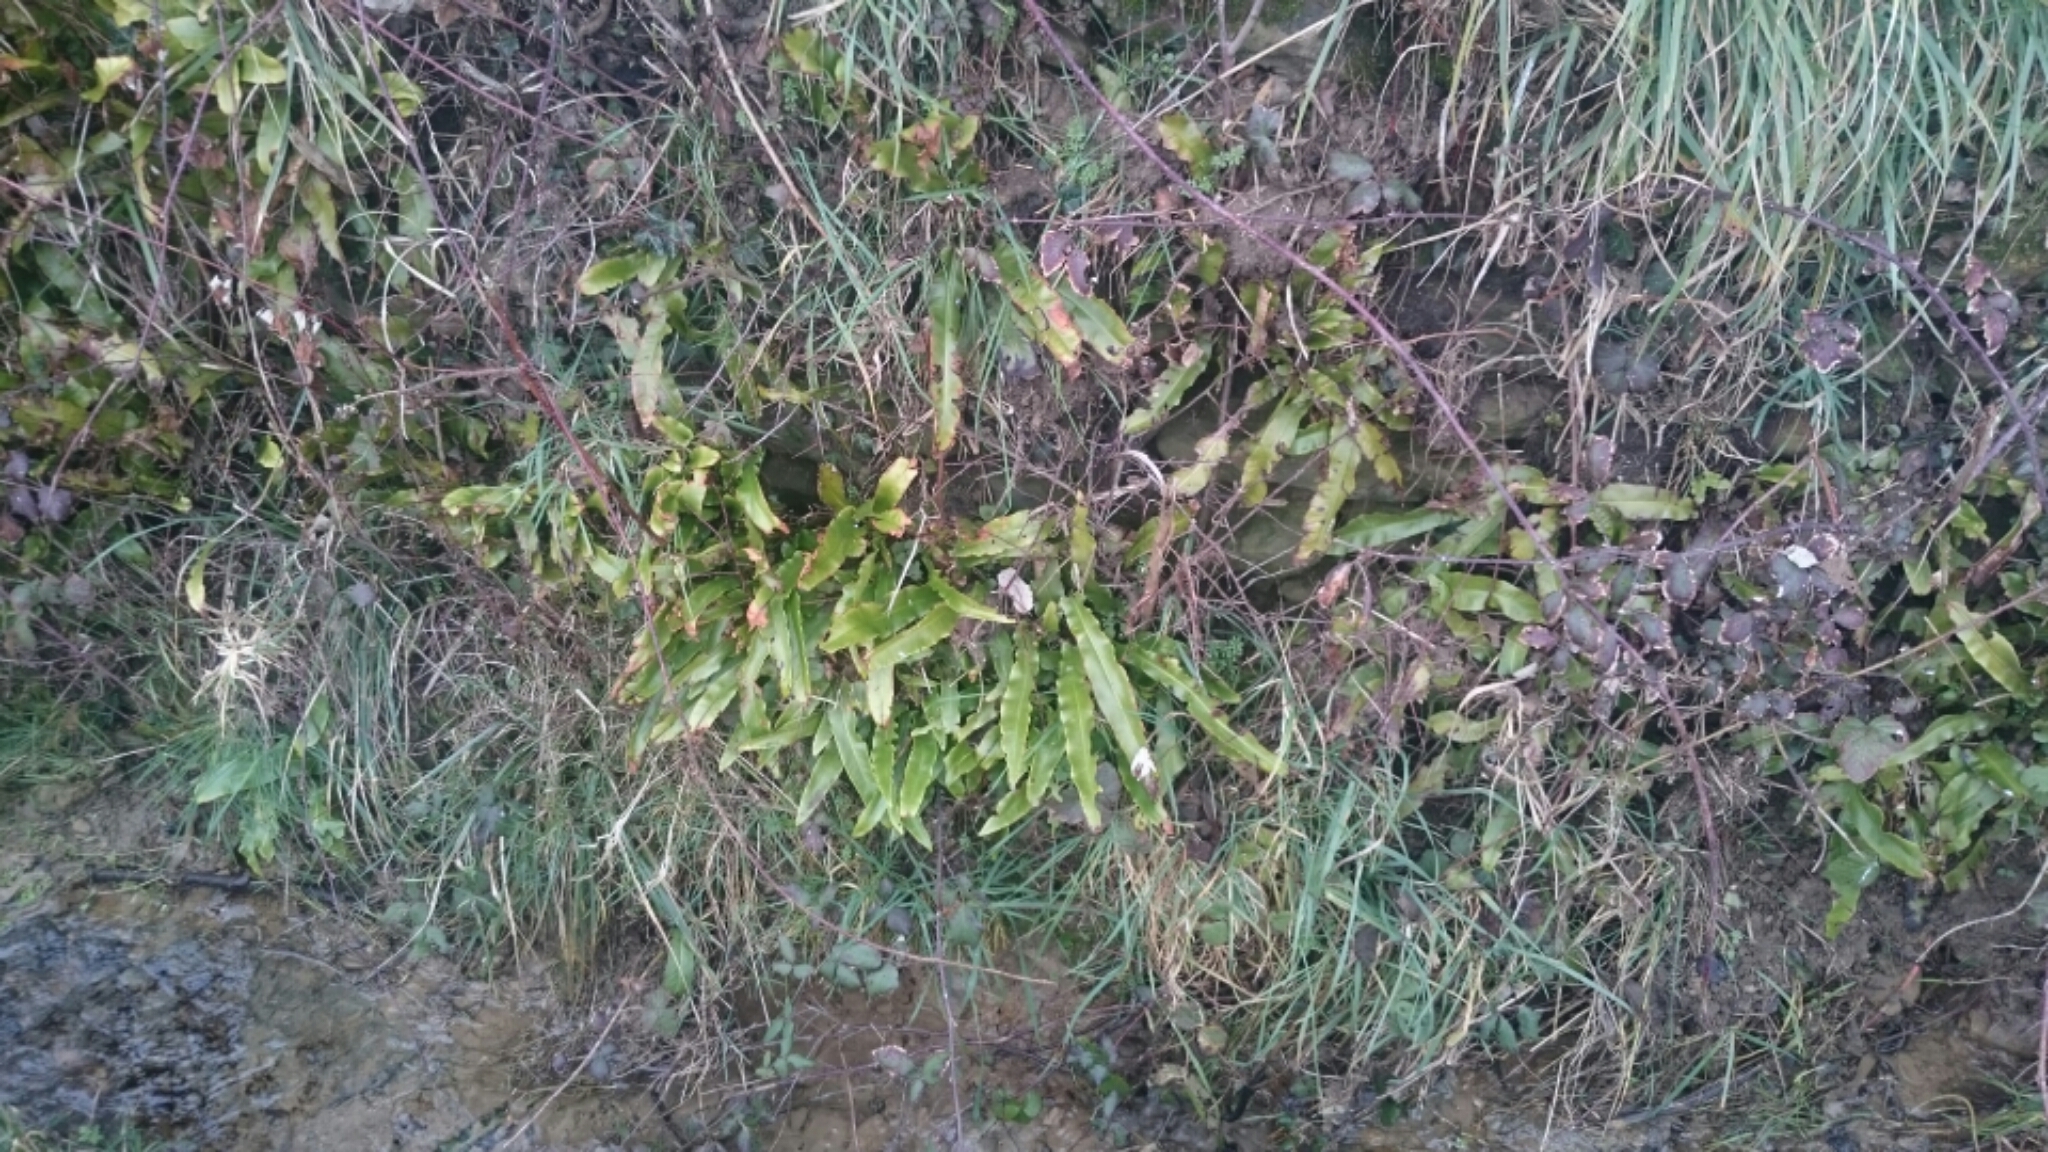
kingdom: Plantae
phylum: Tracheophyta
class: Polypodiopsida
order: Polypodiales
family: Aspleniaceae
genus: Asplenium
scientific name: Asplenium scolopendrium
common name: Hart's-tongue fern
